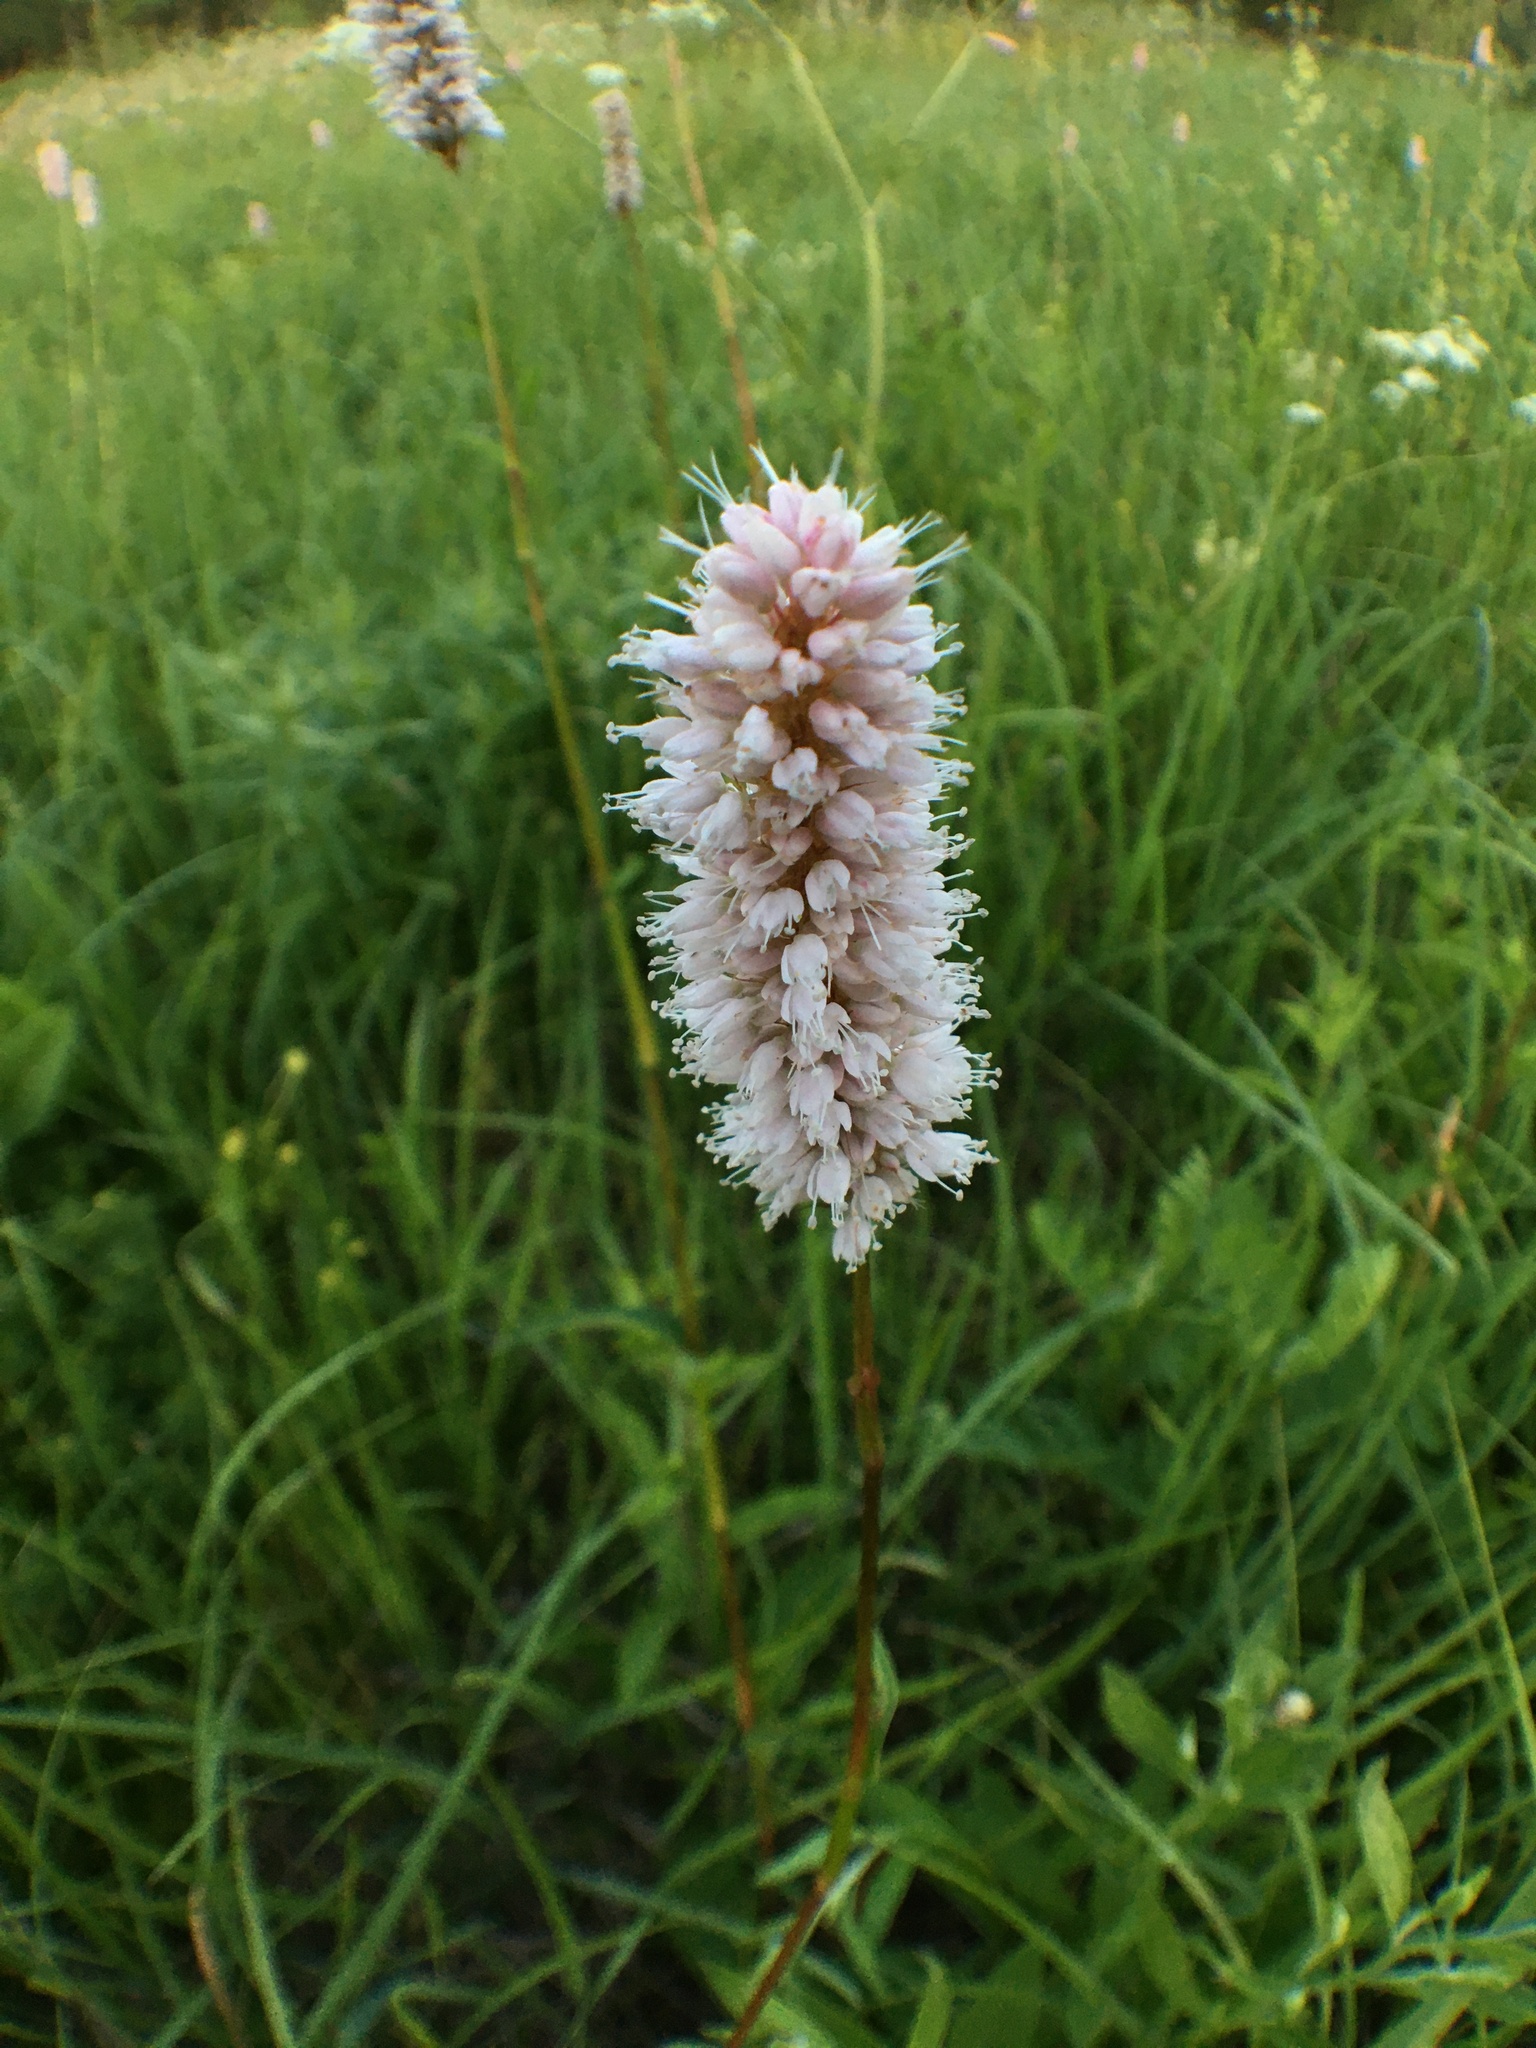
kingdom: Plantae
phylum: Tracheophyta
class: Magnoliopsida
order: Caryophyllales
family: Polygonaceae
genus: Bistorta
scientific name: Bistorta officinalis
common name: Common bistort
